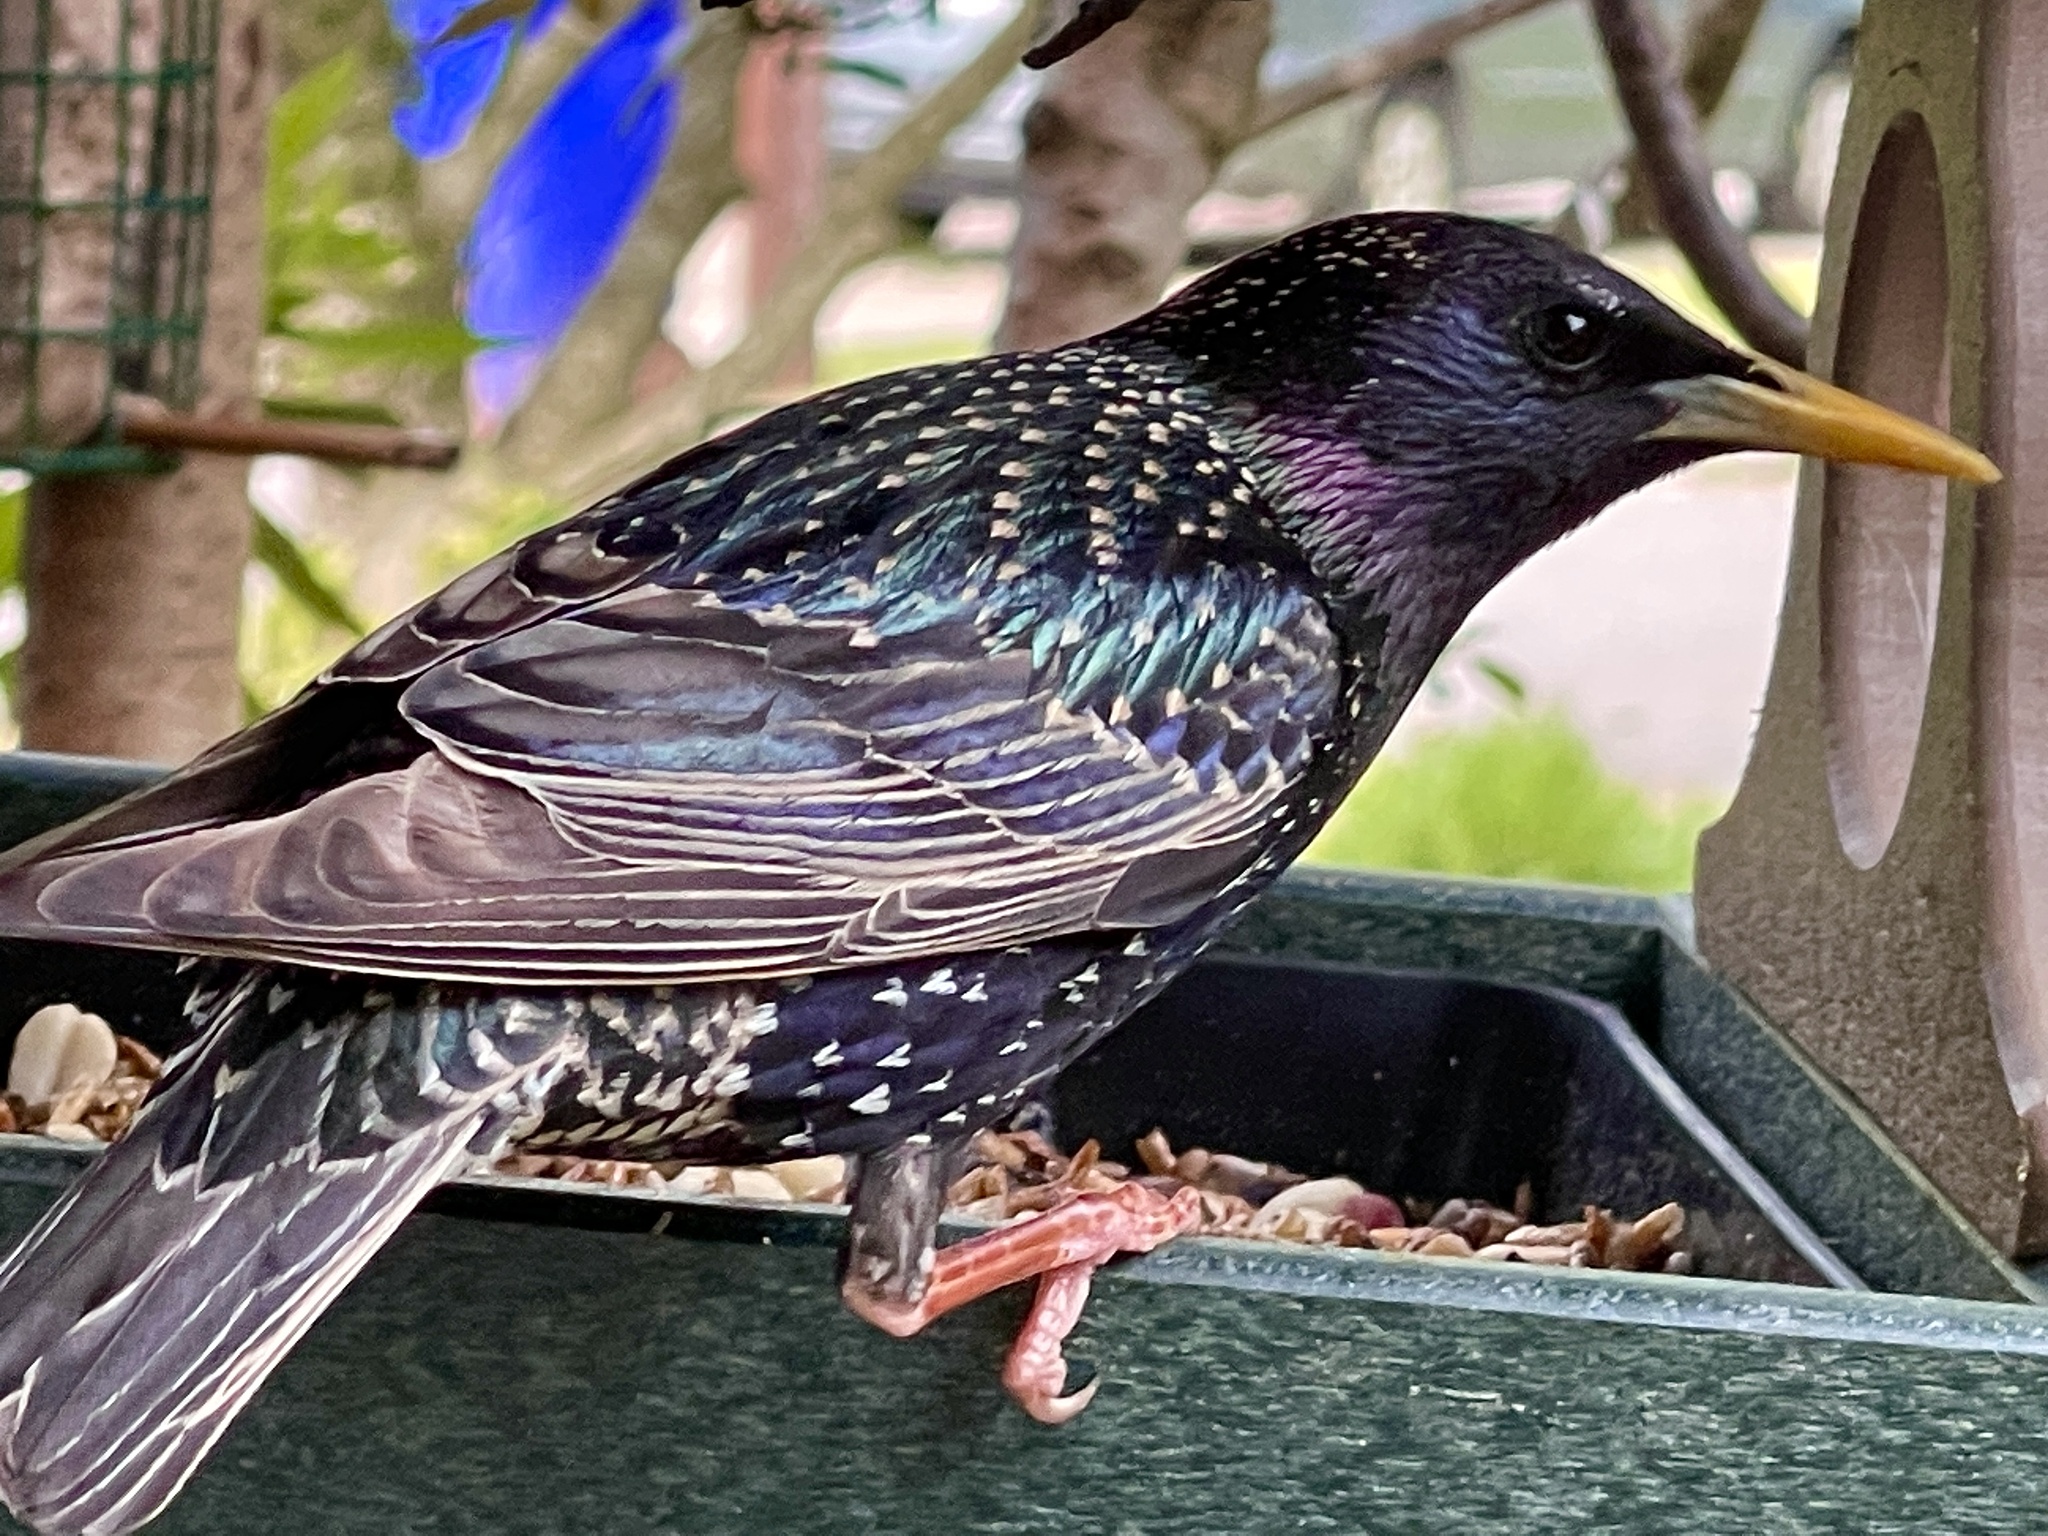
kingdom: Animalia
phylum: Chordata
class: Aves
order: Passeriformes
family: Sturnidae
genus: Sturnus
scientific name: Sturnus vulgaris
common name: Common starling
